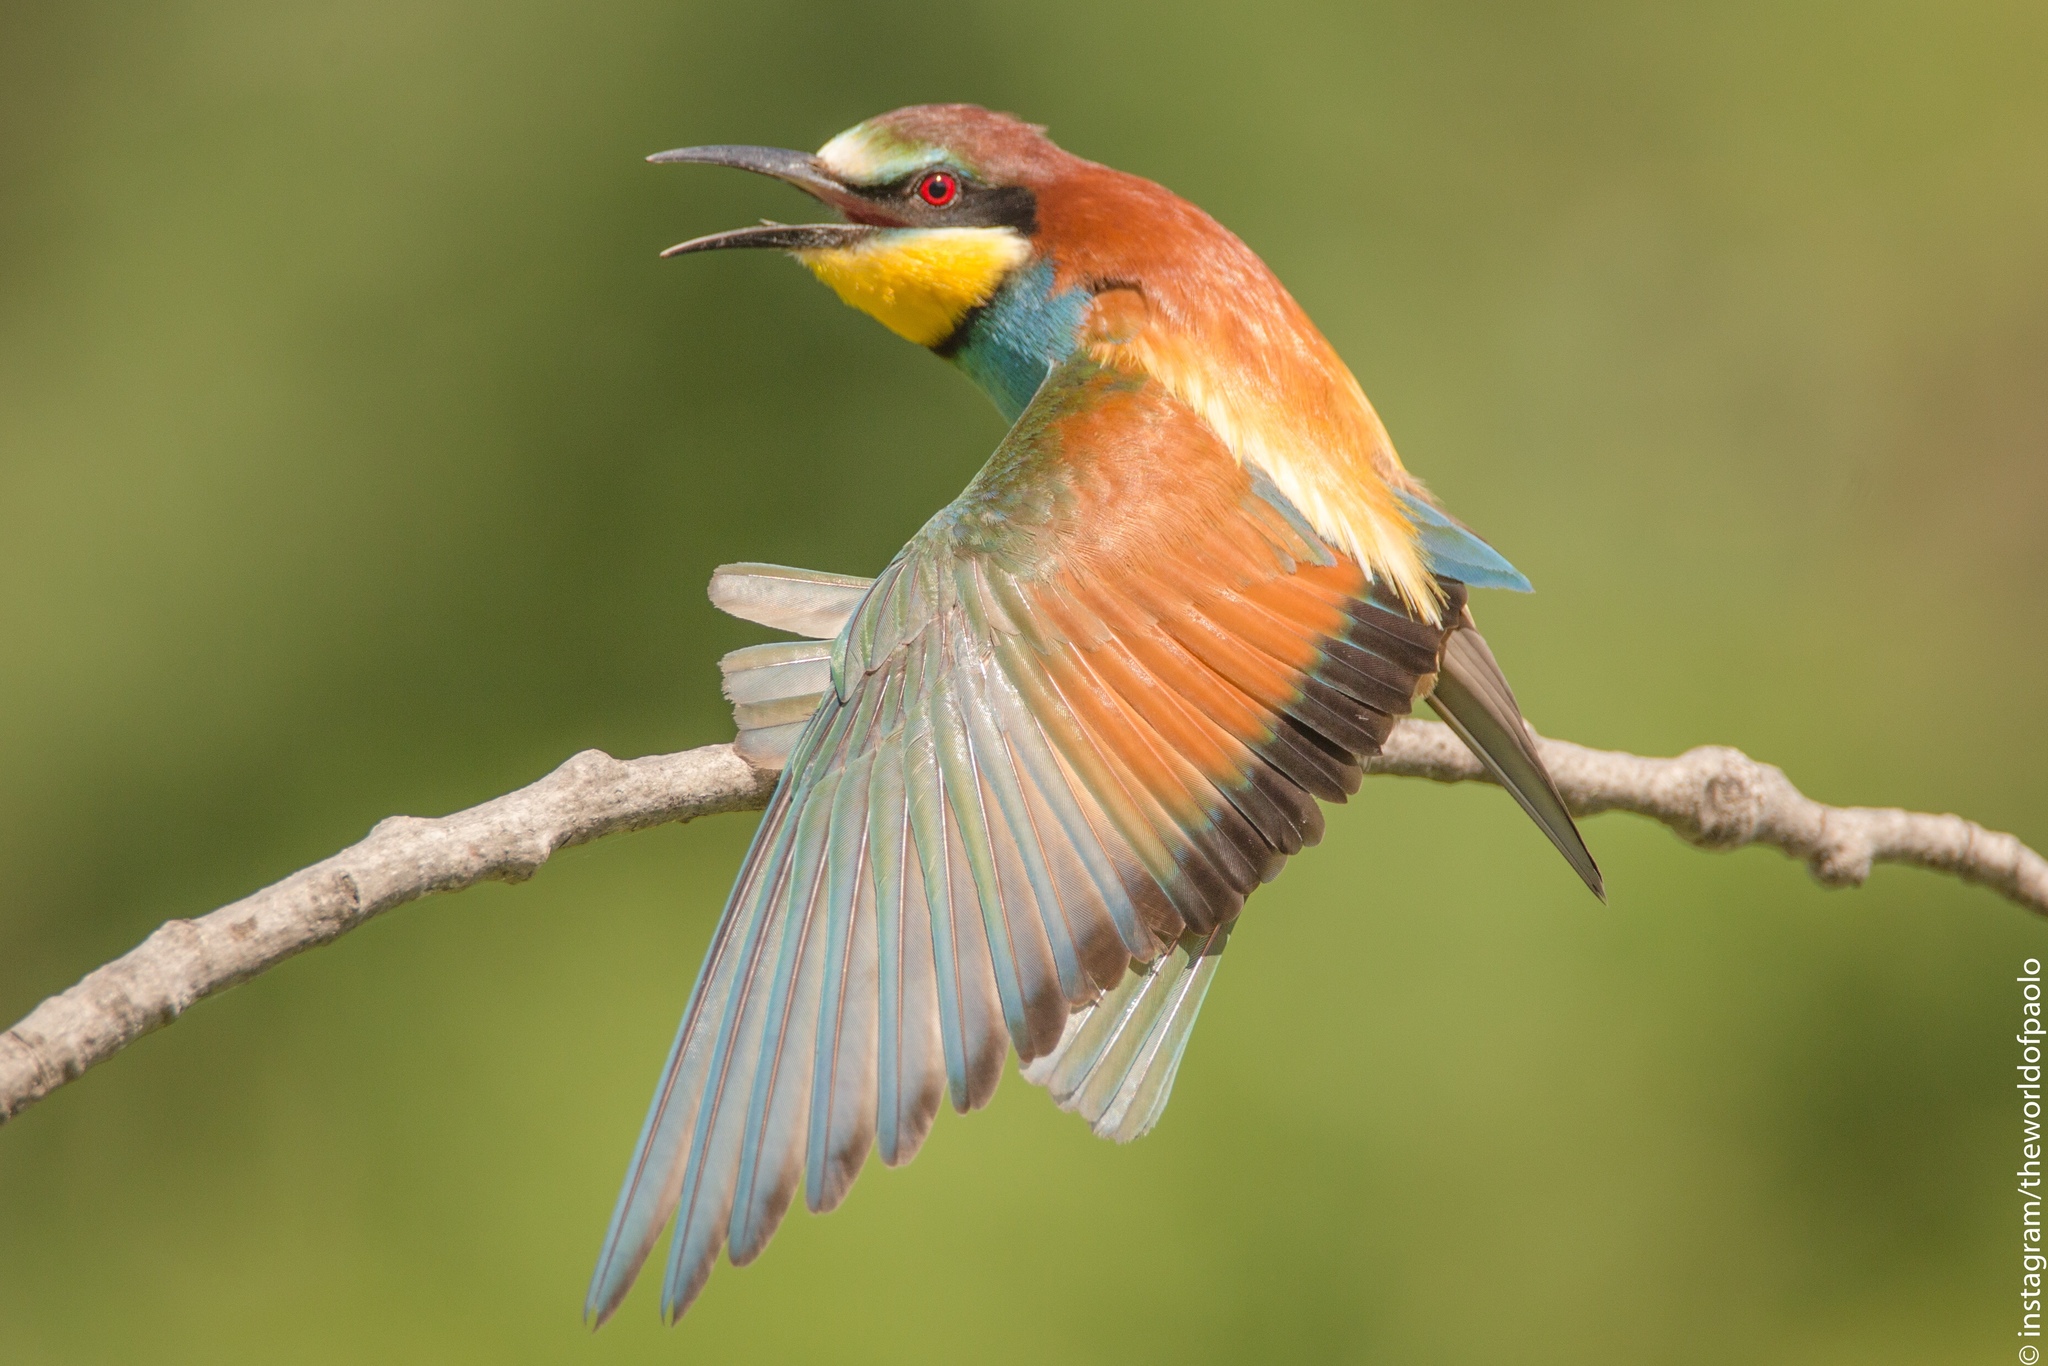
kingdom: Animalia
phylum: Chordata
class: Aves
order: Coraciiformes
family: Meropidae
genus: Merops
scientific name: Merops apiaster
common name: European bee-eater
